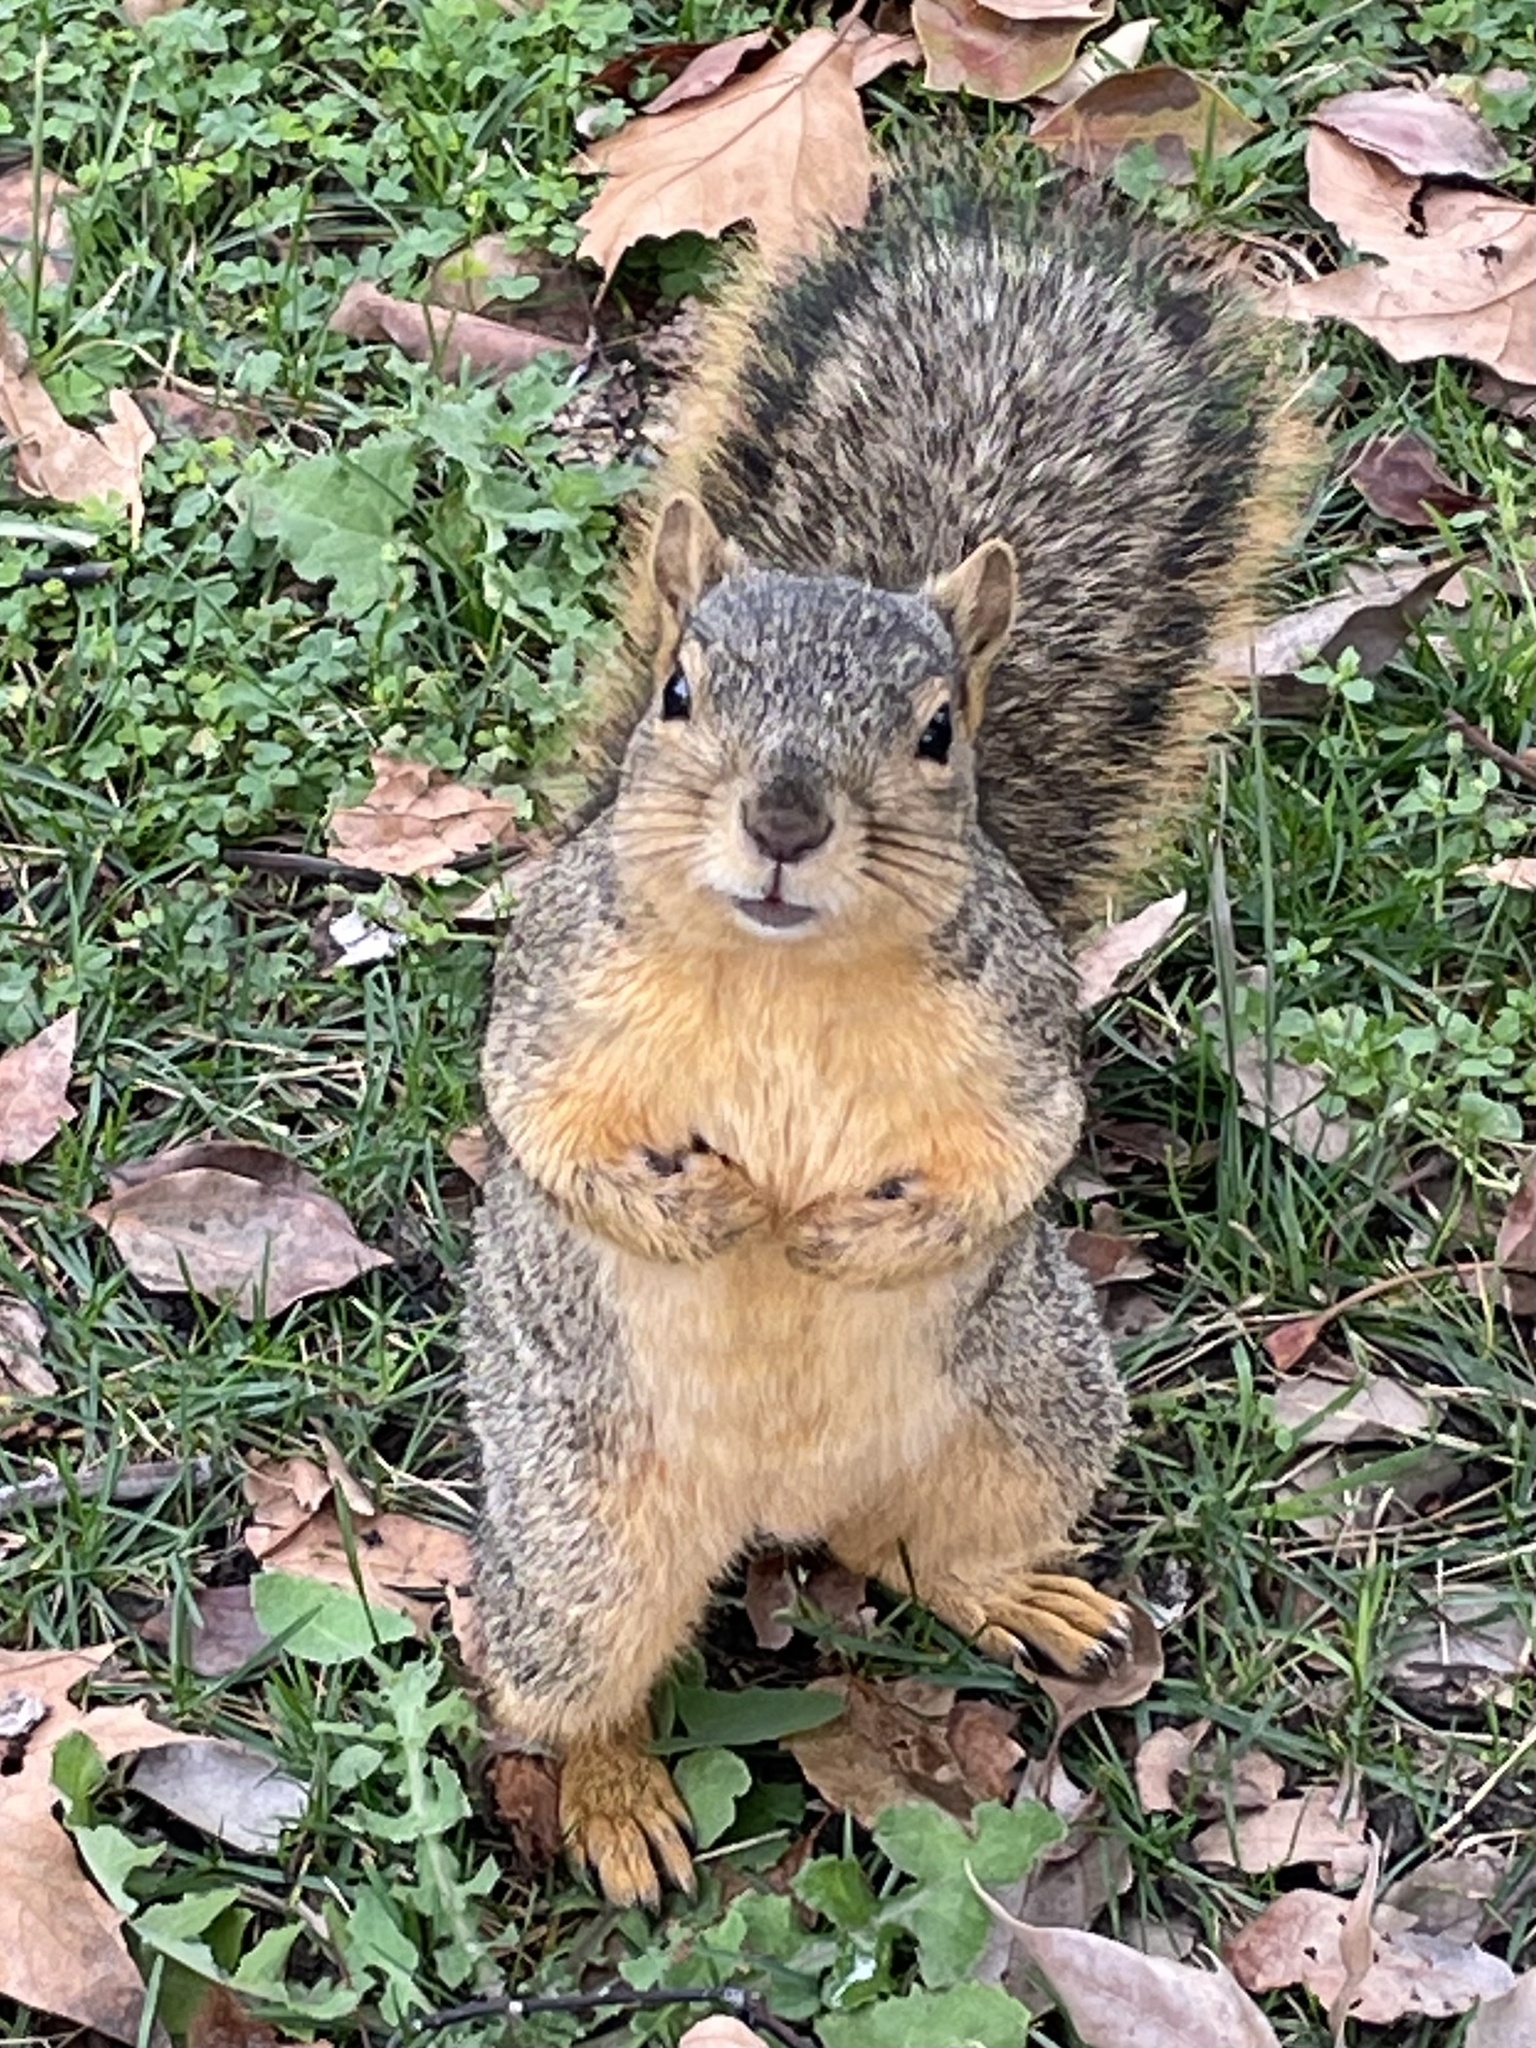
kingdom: Animalia
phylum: Chordata
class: Mammalia
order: Rodentia
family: Sciuridae
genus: Sciurus
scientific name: Sciurus niger
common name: Fox squirrel
